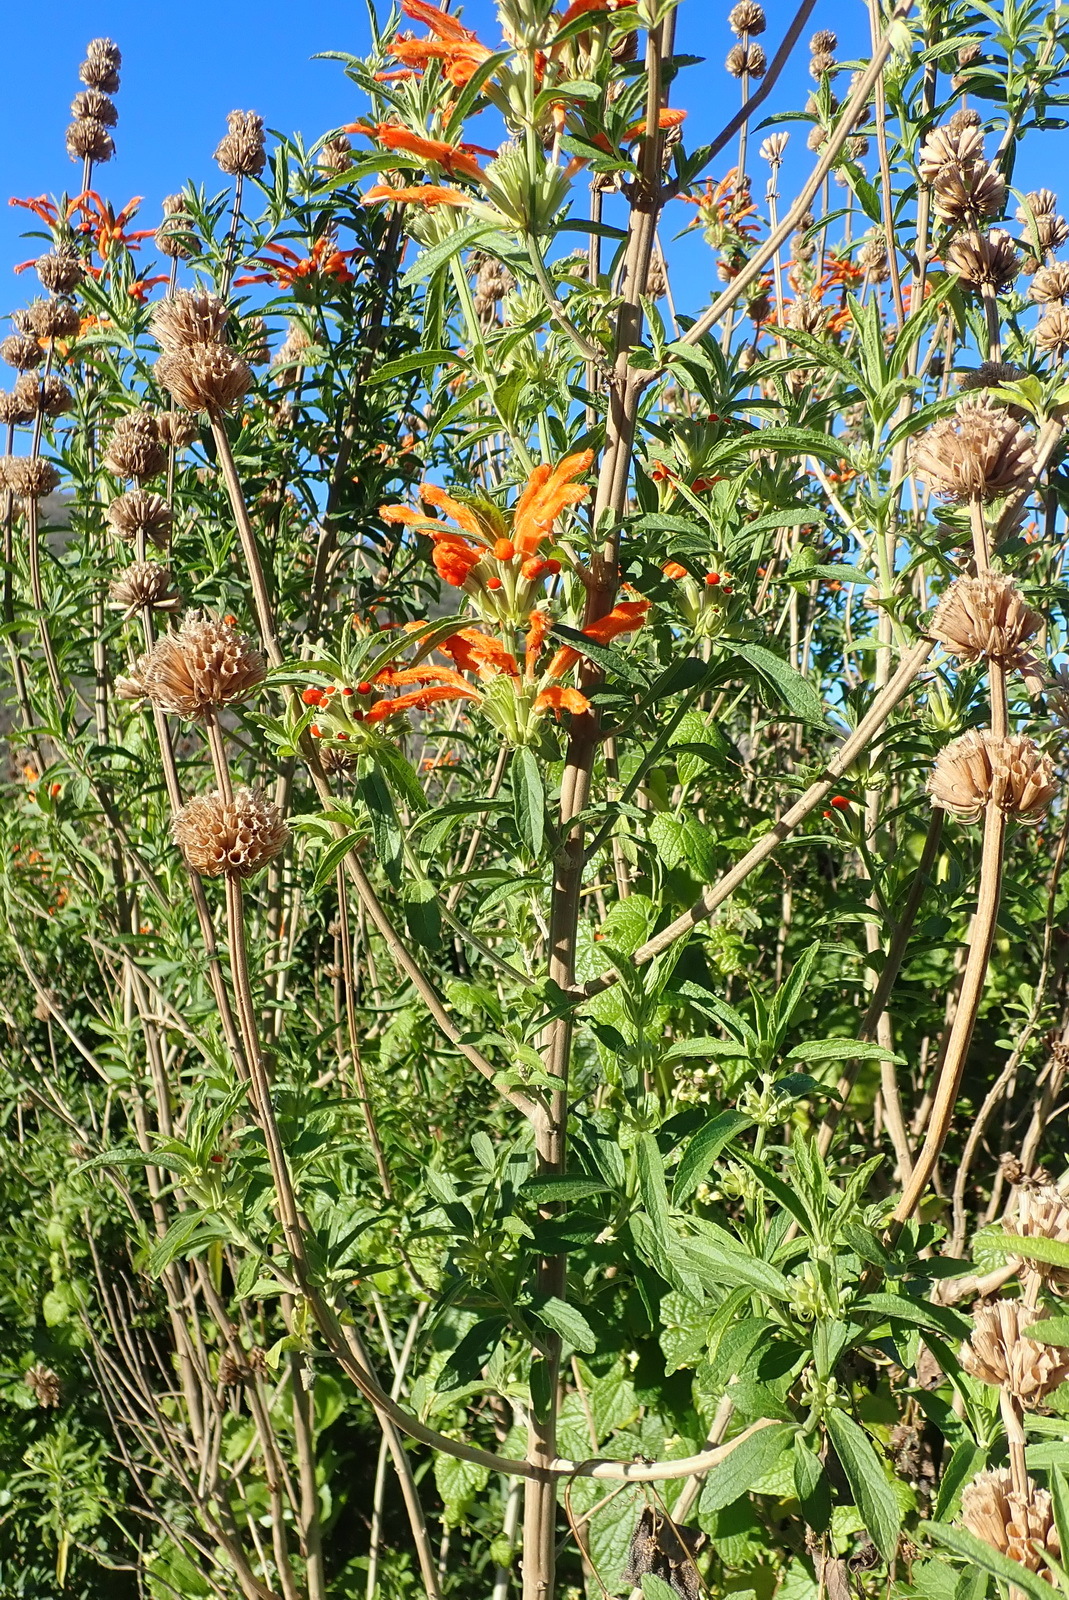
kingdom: Plantae
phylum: Tracheophyta
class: Magnoliopsida
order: Lamiales
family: Lamiaceae
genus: Leonotis
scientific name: Leonotis leonurus
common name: Lion's ear
